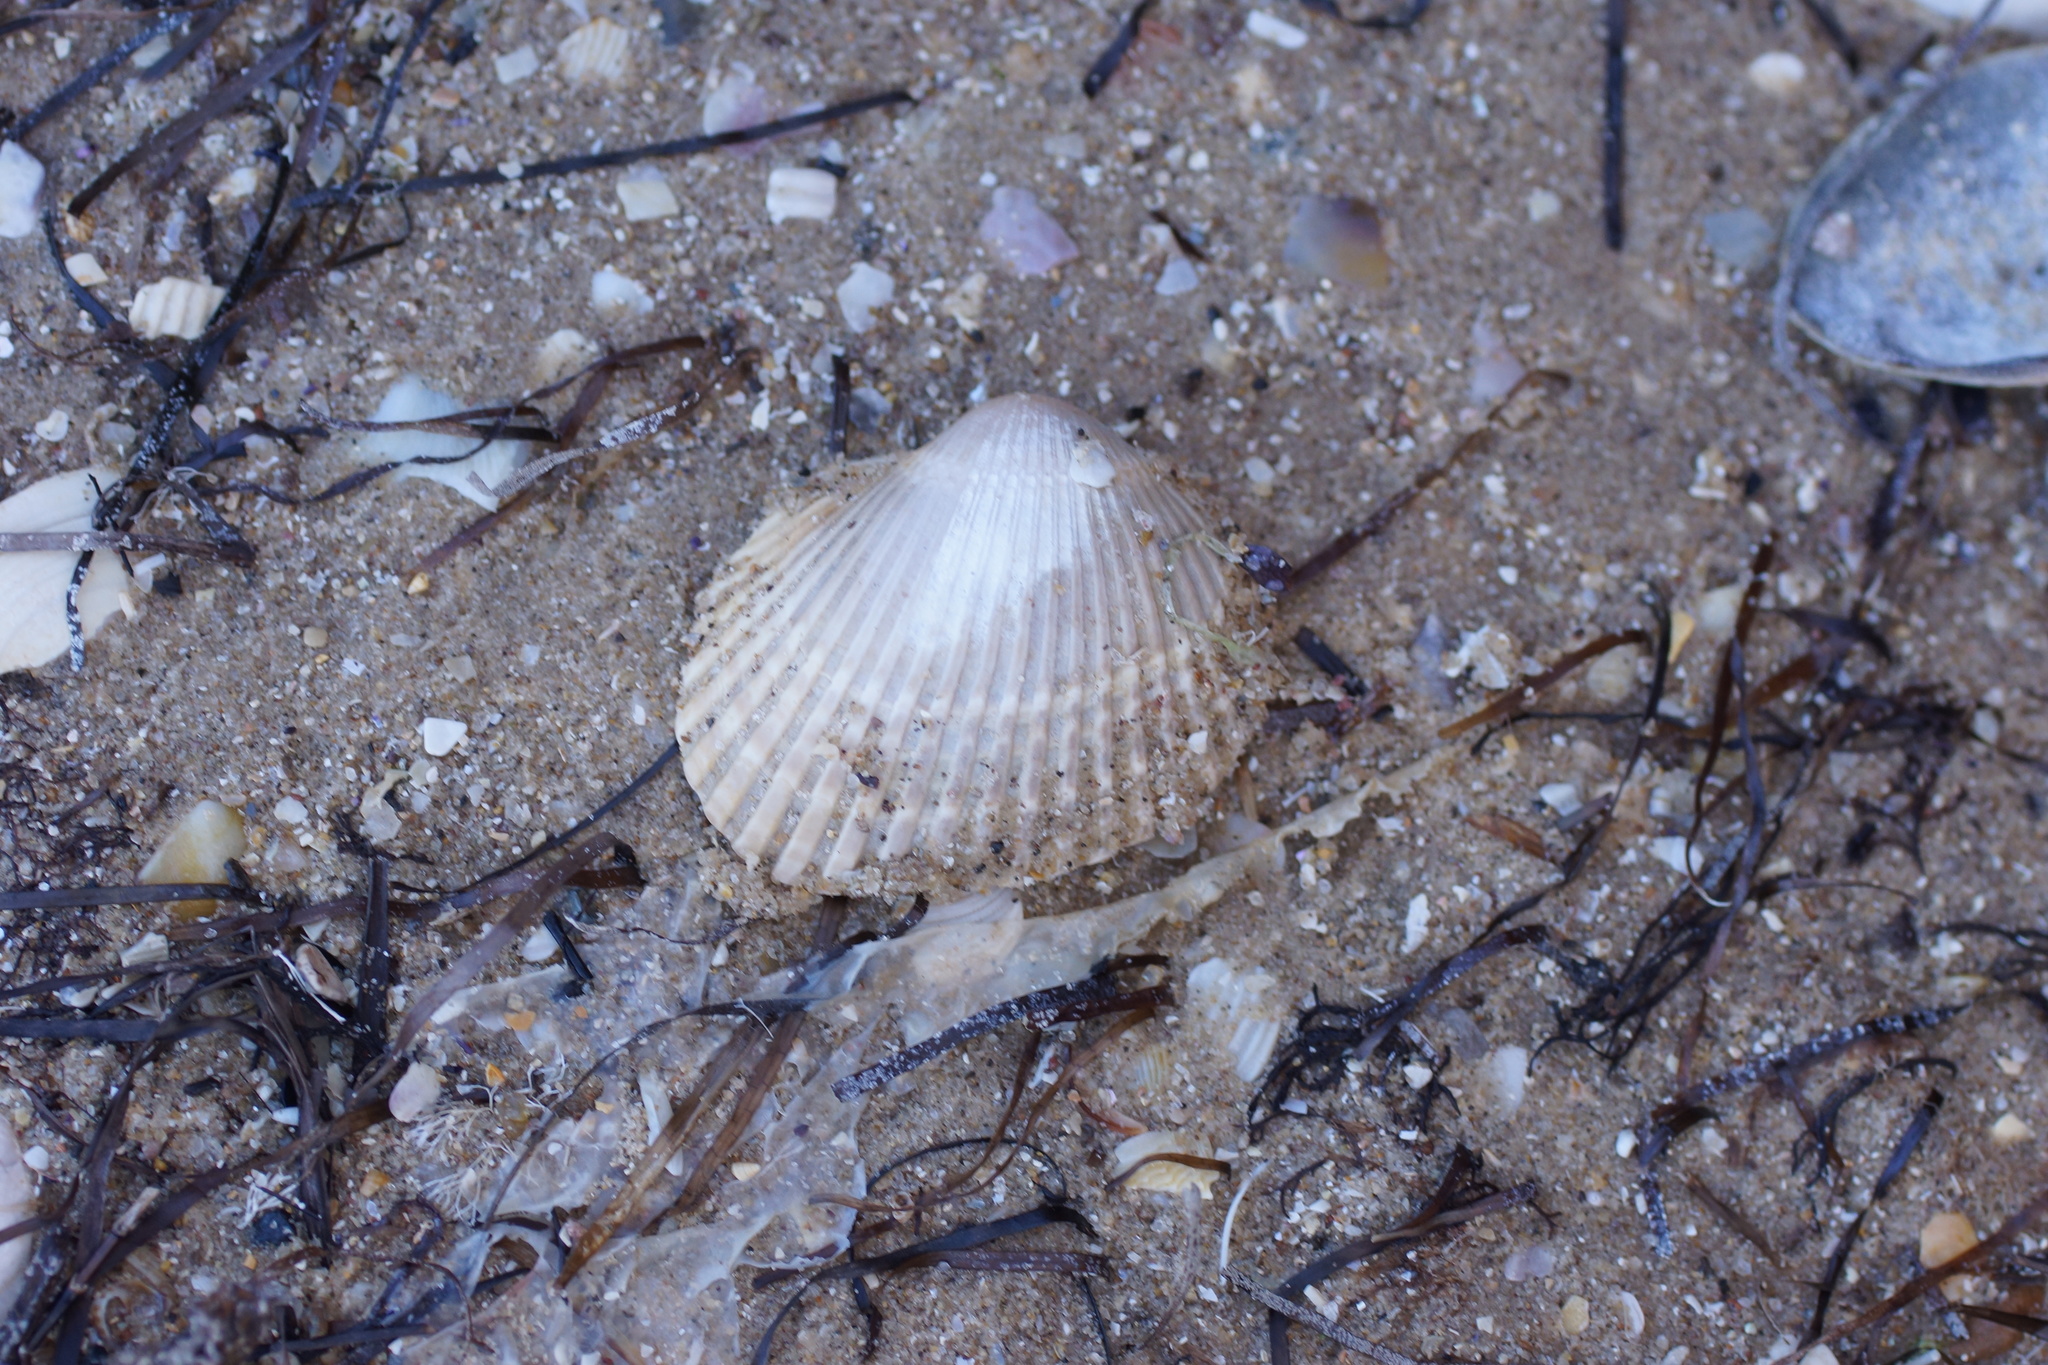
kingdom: Animalia
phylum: Mollusca
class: Bivalvia
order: Arcida
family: Arcidae
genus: Anadara
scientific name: Anadara trapezia
